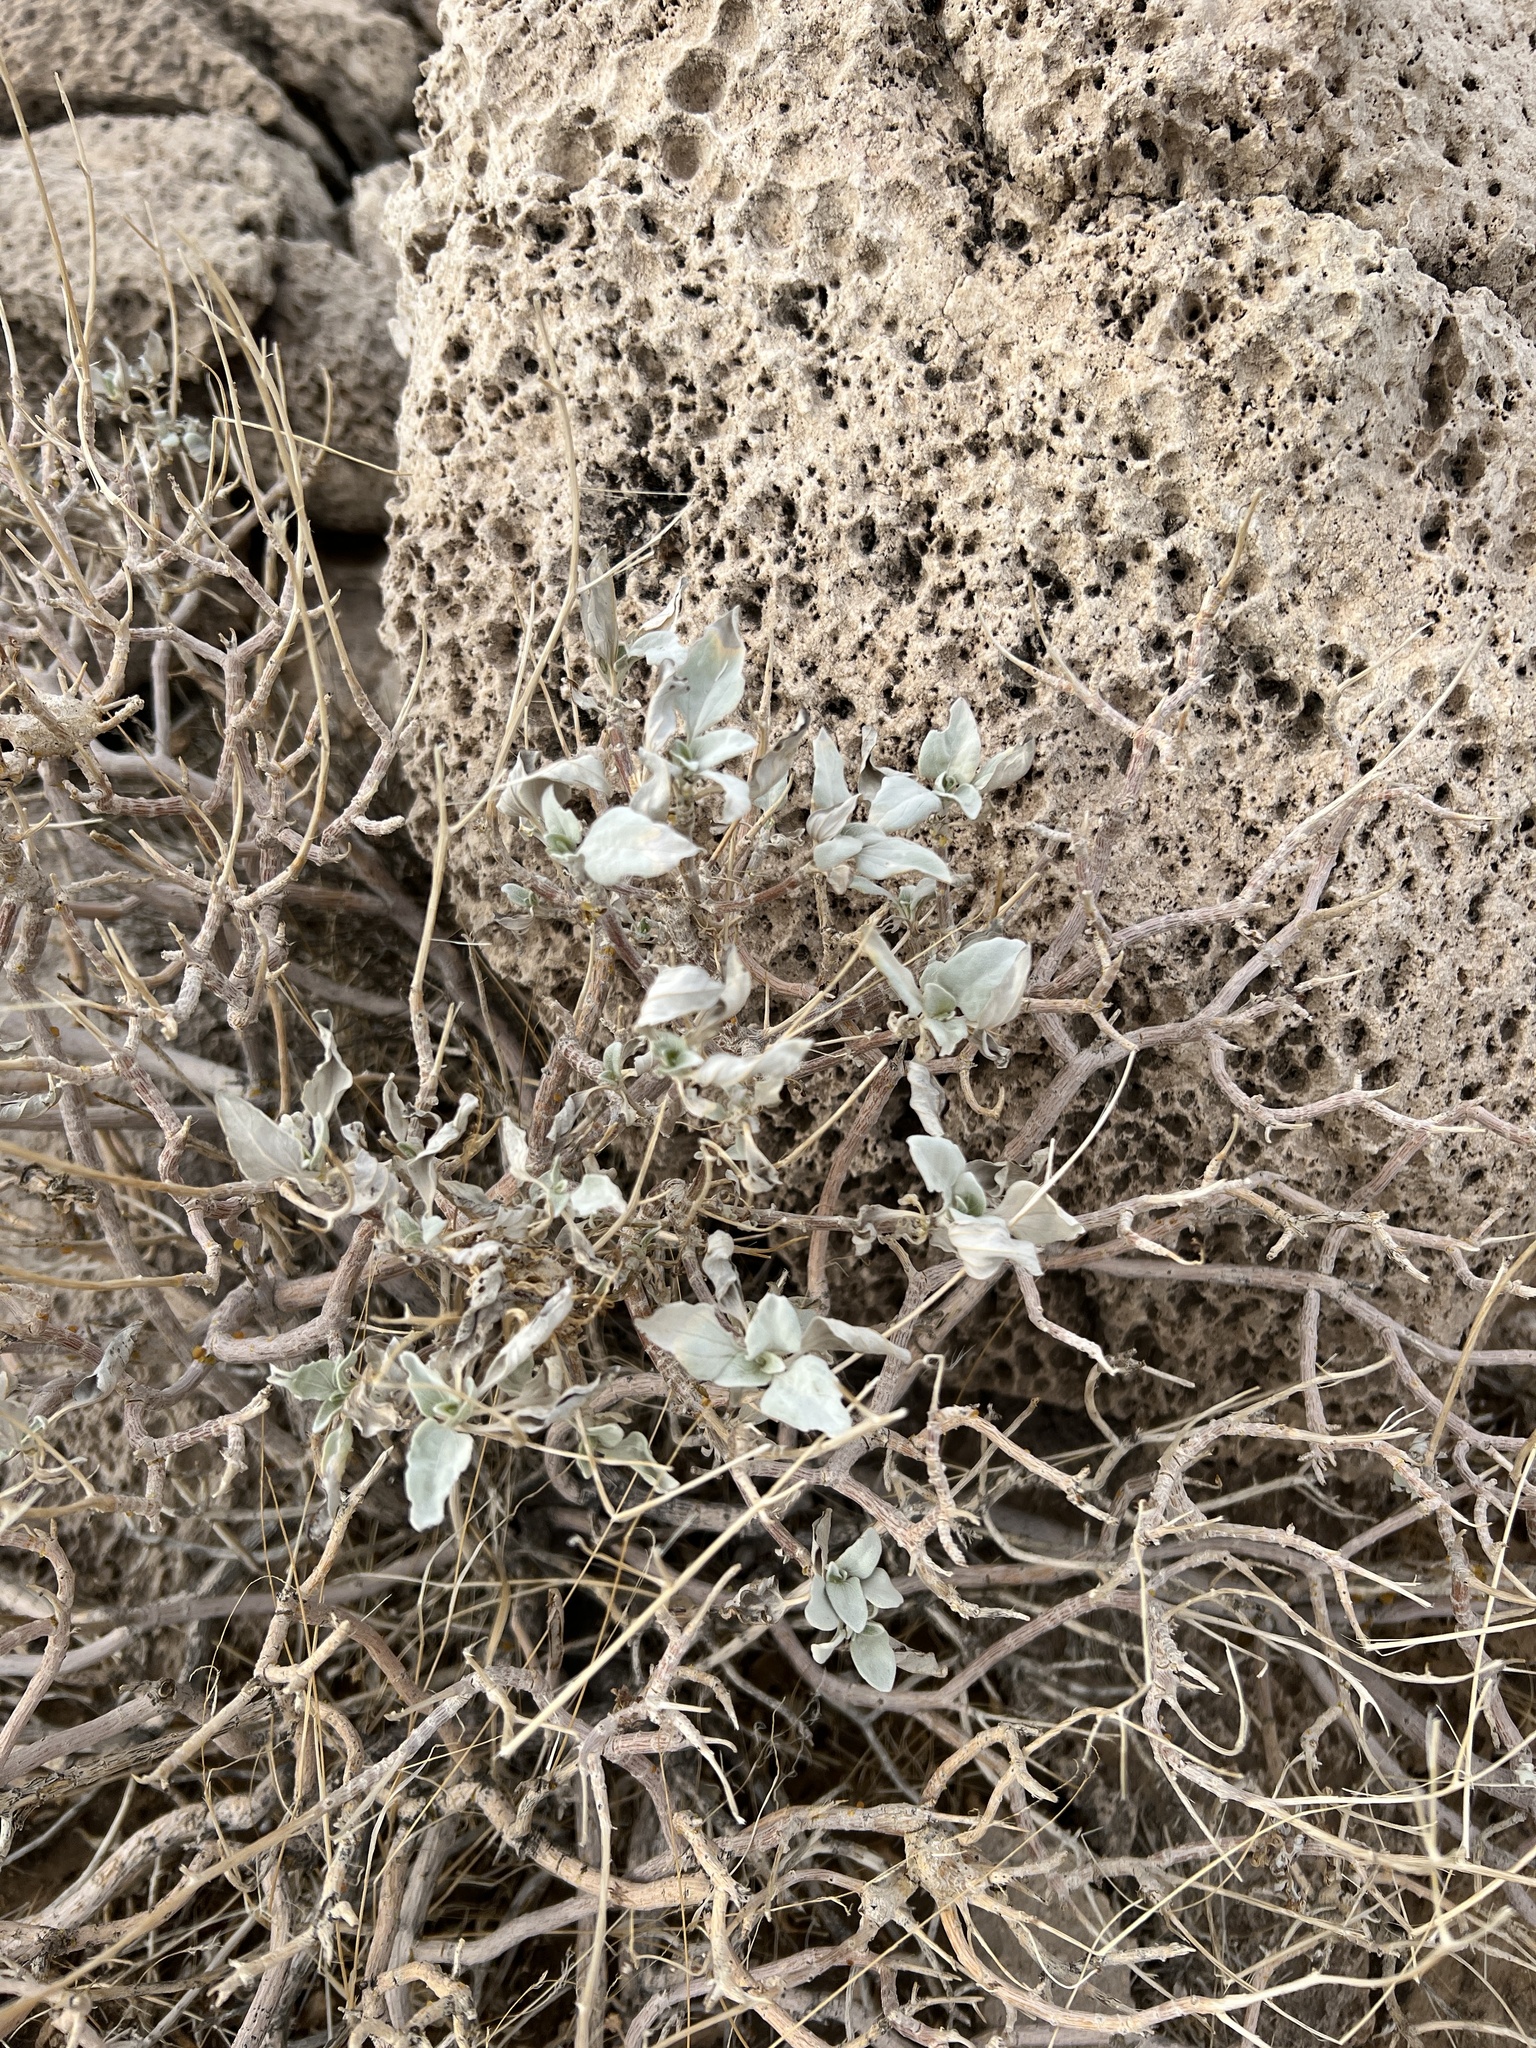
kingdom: Plantae
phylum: Tracheophyta
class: Magnoliopsida
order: Asterales
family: Asteraceae
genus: Encelia
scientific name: Encelia farinosa
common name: Brittlebush
